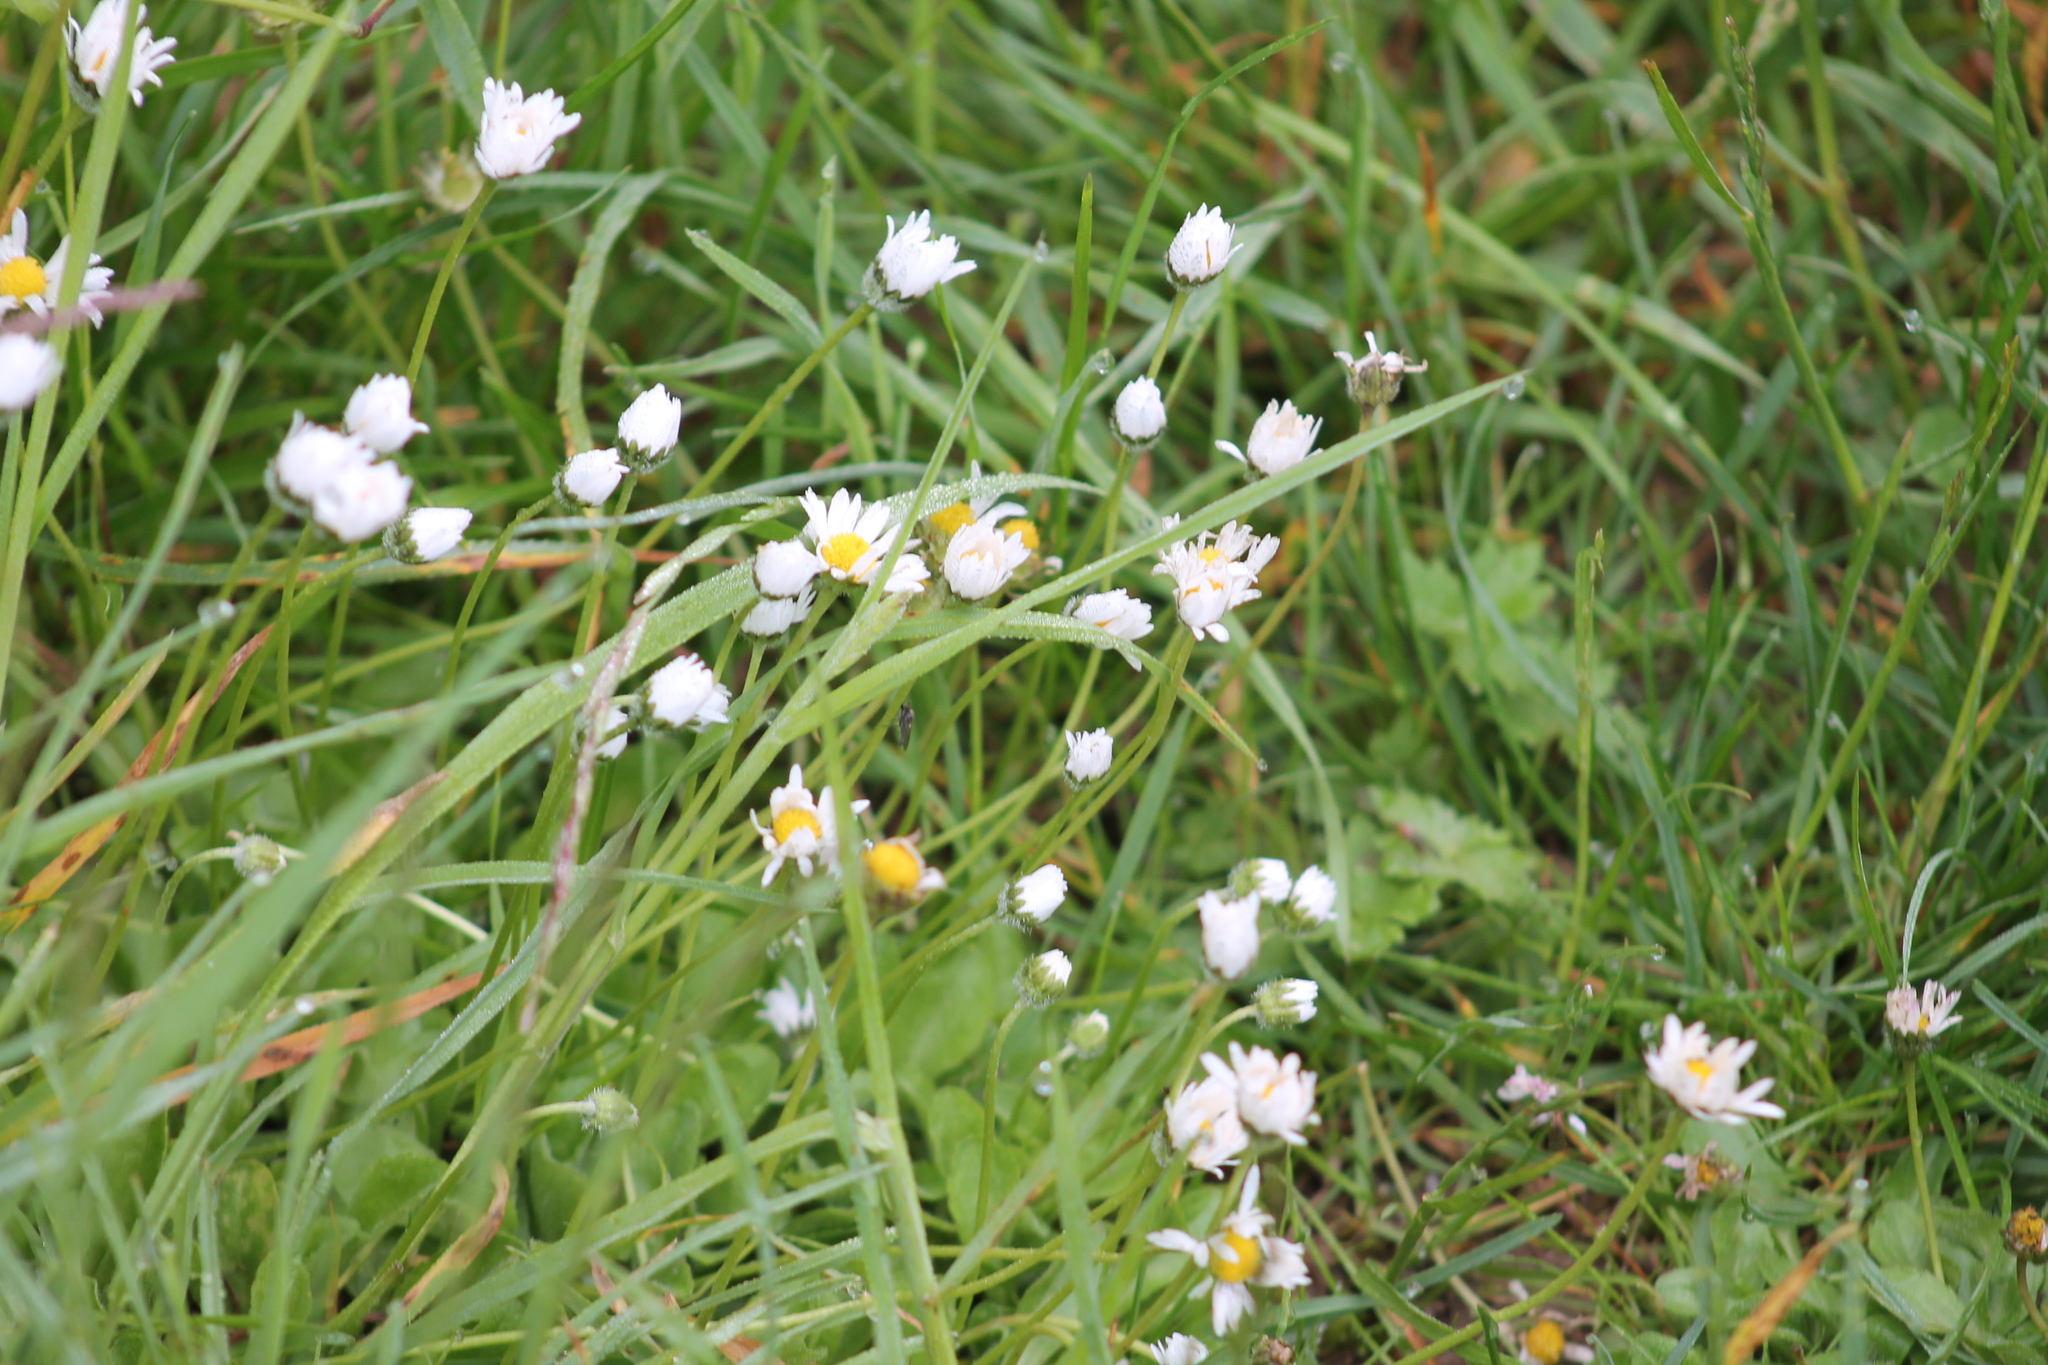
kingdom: Plantae
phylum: Tracheophyta
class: Magnoliopsida
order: Asterales
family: Asteraceae
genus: Bellis
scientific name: Bellis perennis
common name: Lawndaisy
